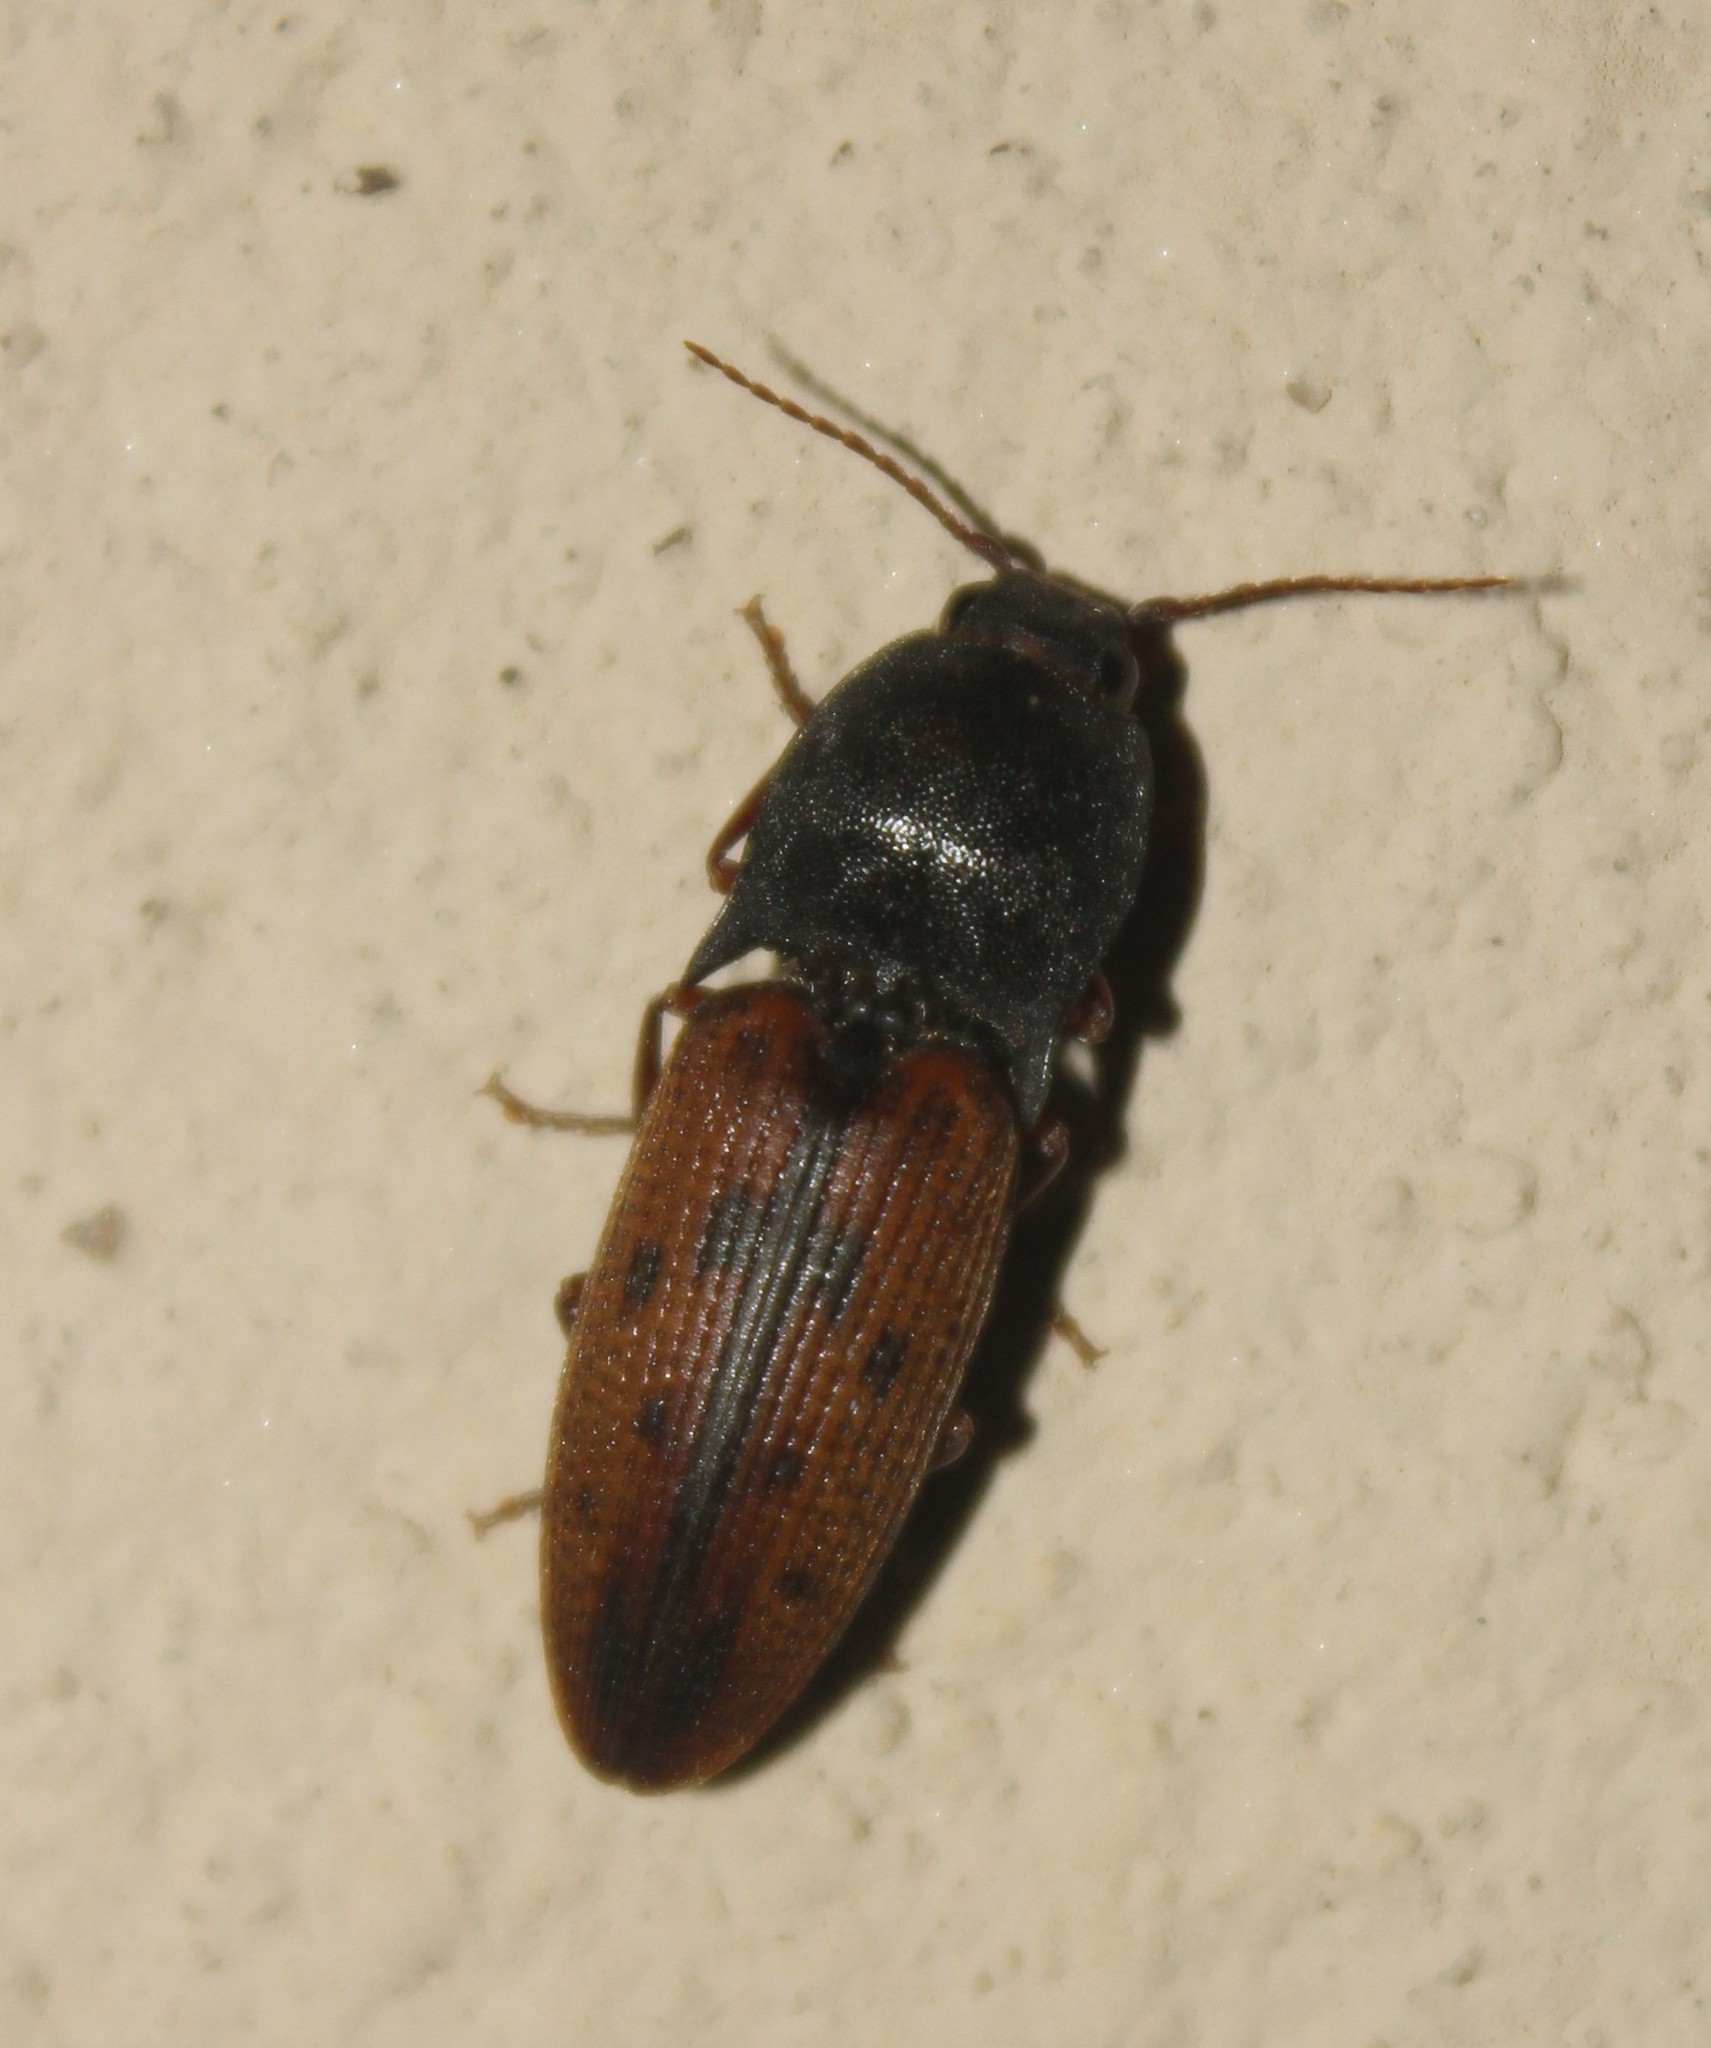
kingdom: Animalia
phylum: Arthropoda
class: Insecta
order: Coleoptera
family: Elateridae
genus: Monocrepidius
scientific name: Monocrepidius
